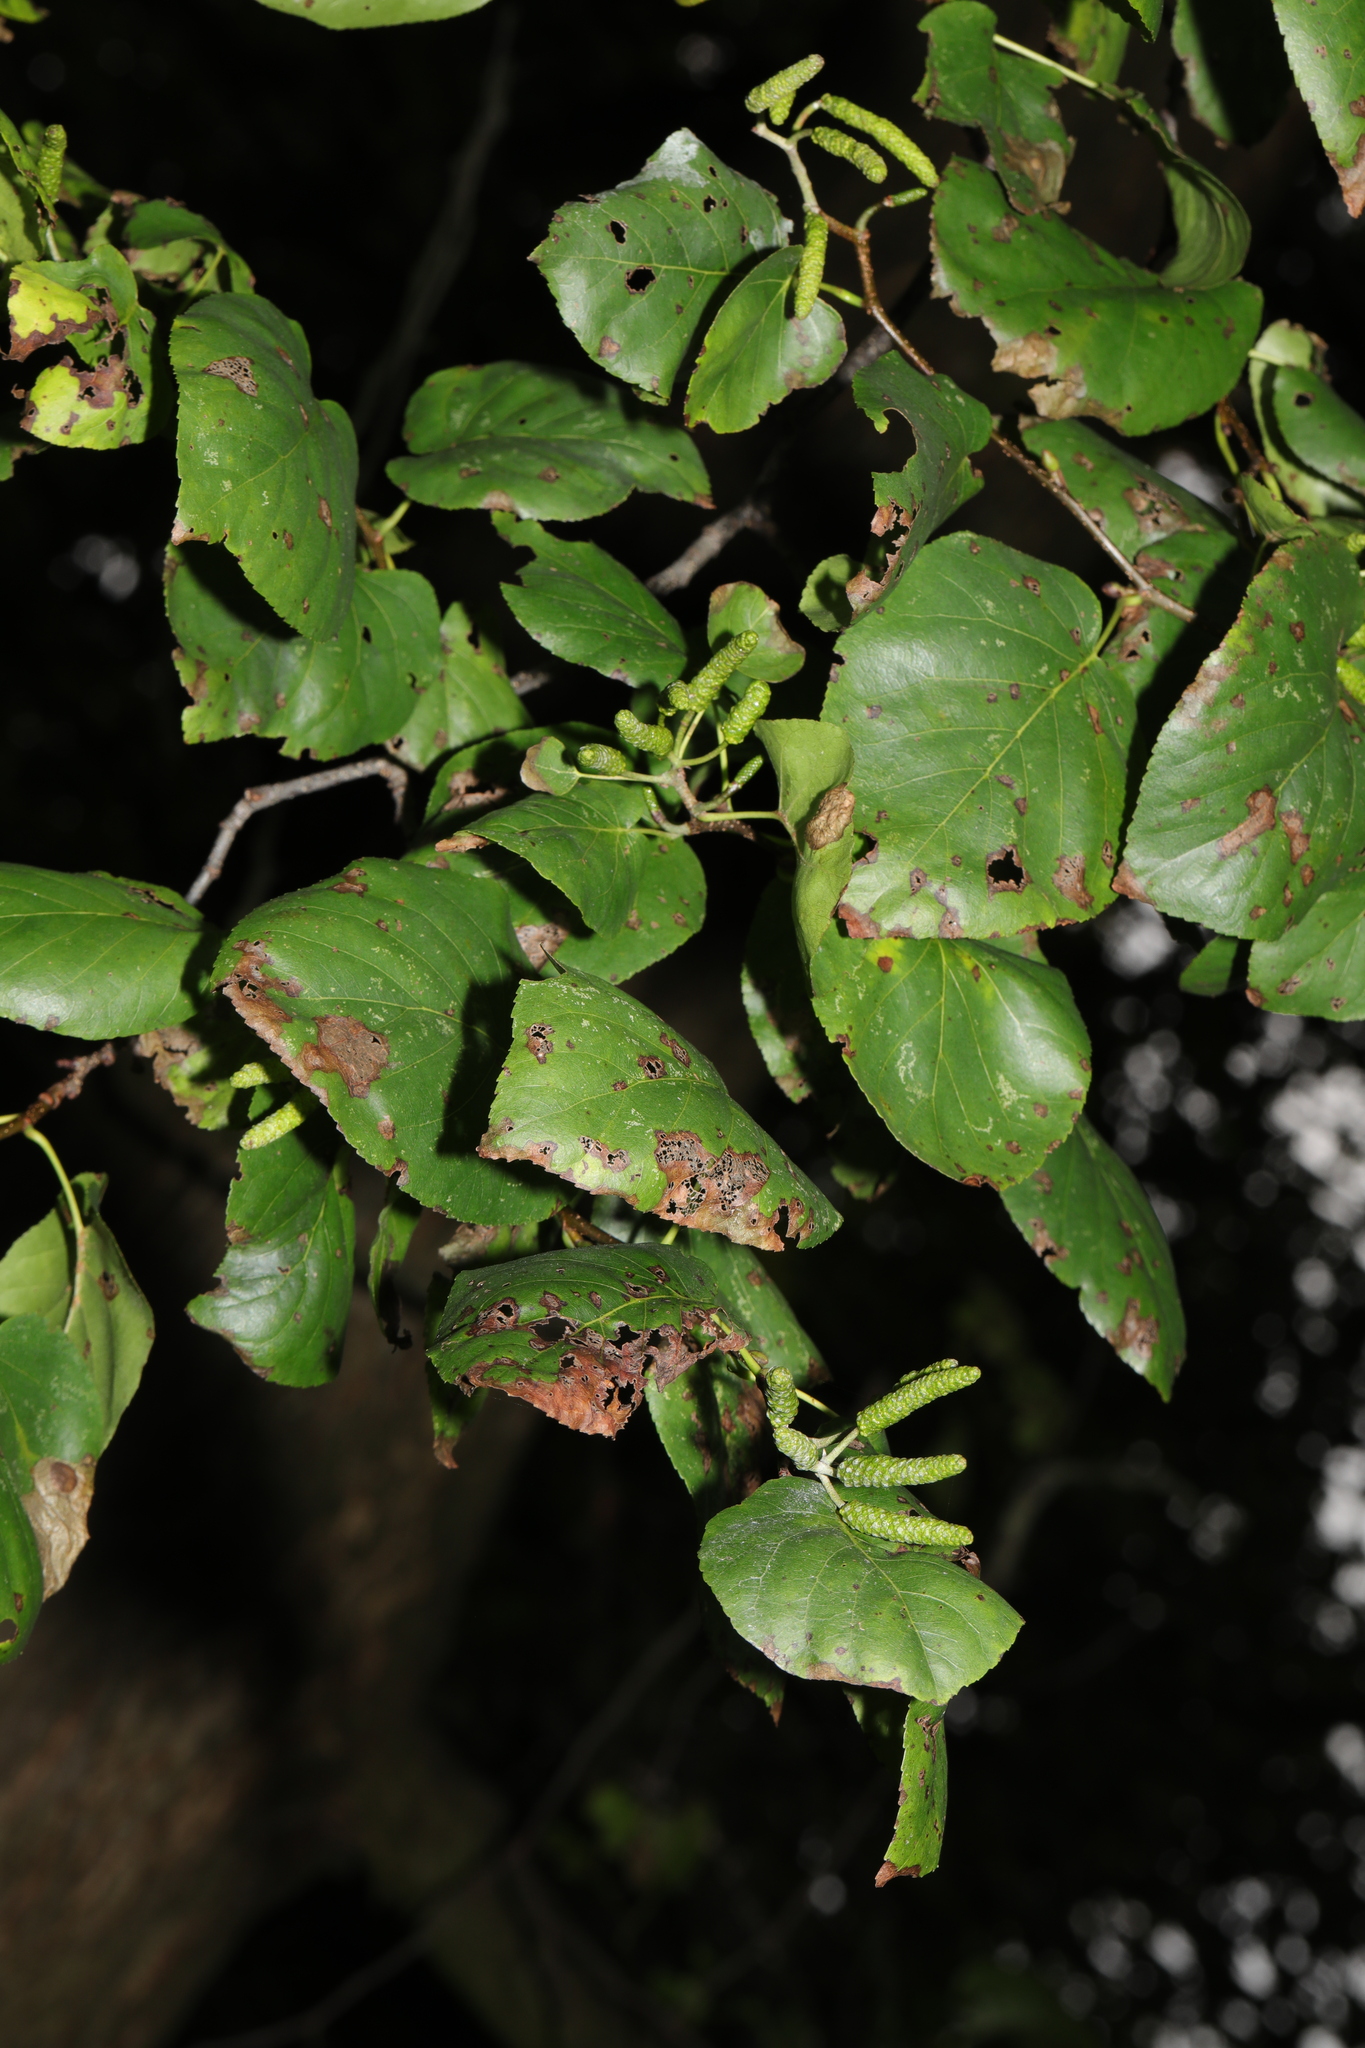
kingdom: Plantae
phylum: Tracheophyta
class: Magnoliopsida
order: Fagales
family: Betulaceae
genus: Alnus
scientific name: Alnus cordata
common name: Italian alder
